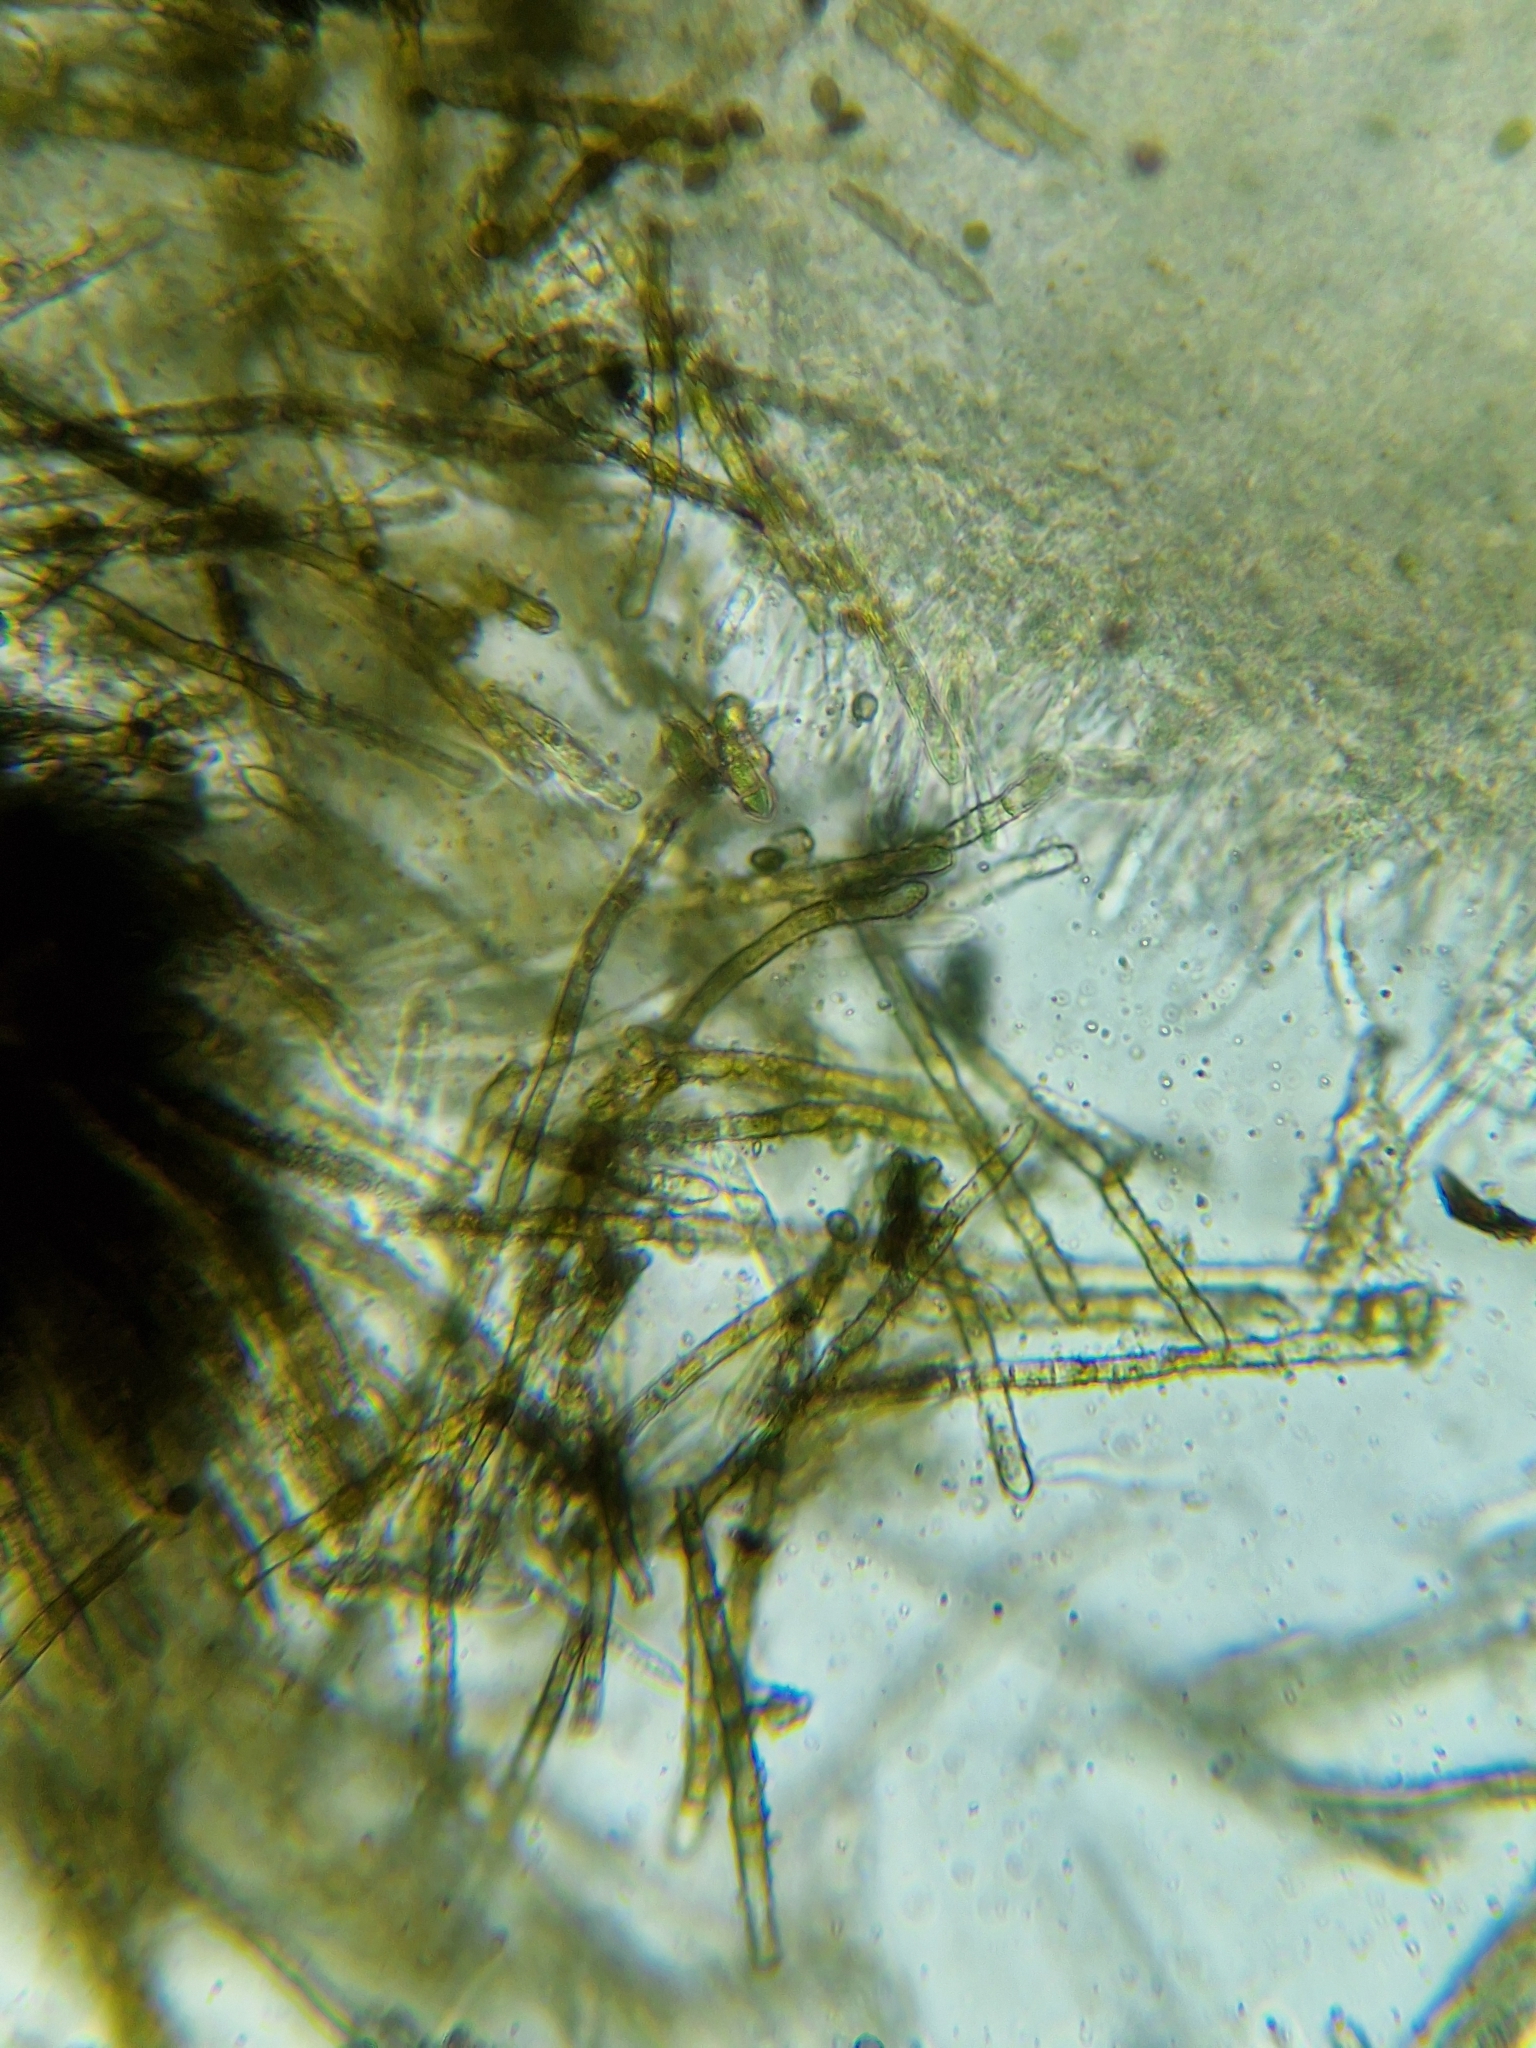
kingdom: Fungi
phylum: Ascomycota
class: Leotiomycetes
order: Helotiales
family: Lachnaceae
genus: Neodasyscypha
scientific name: Neodasyscypha cerina
